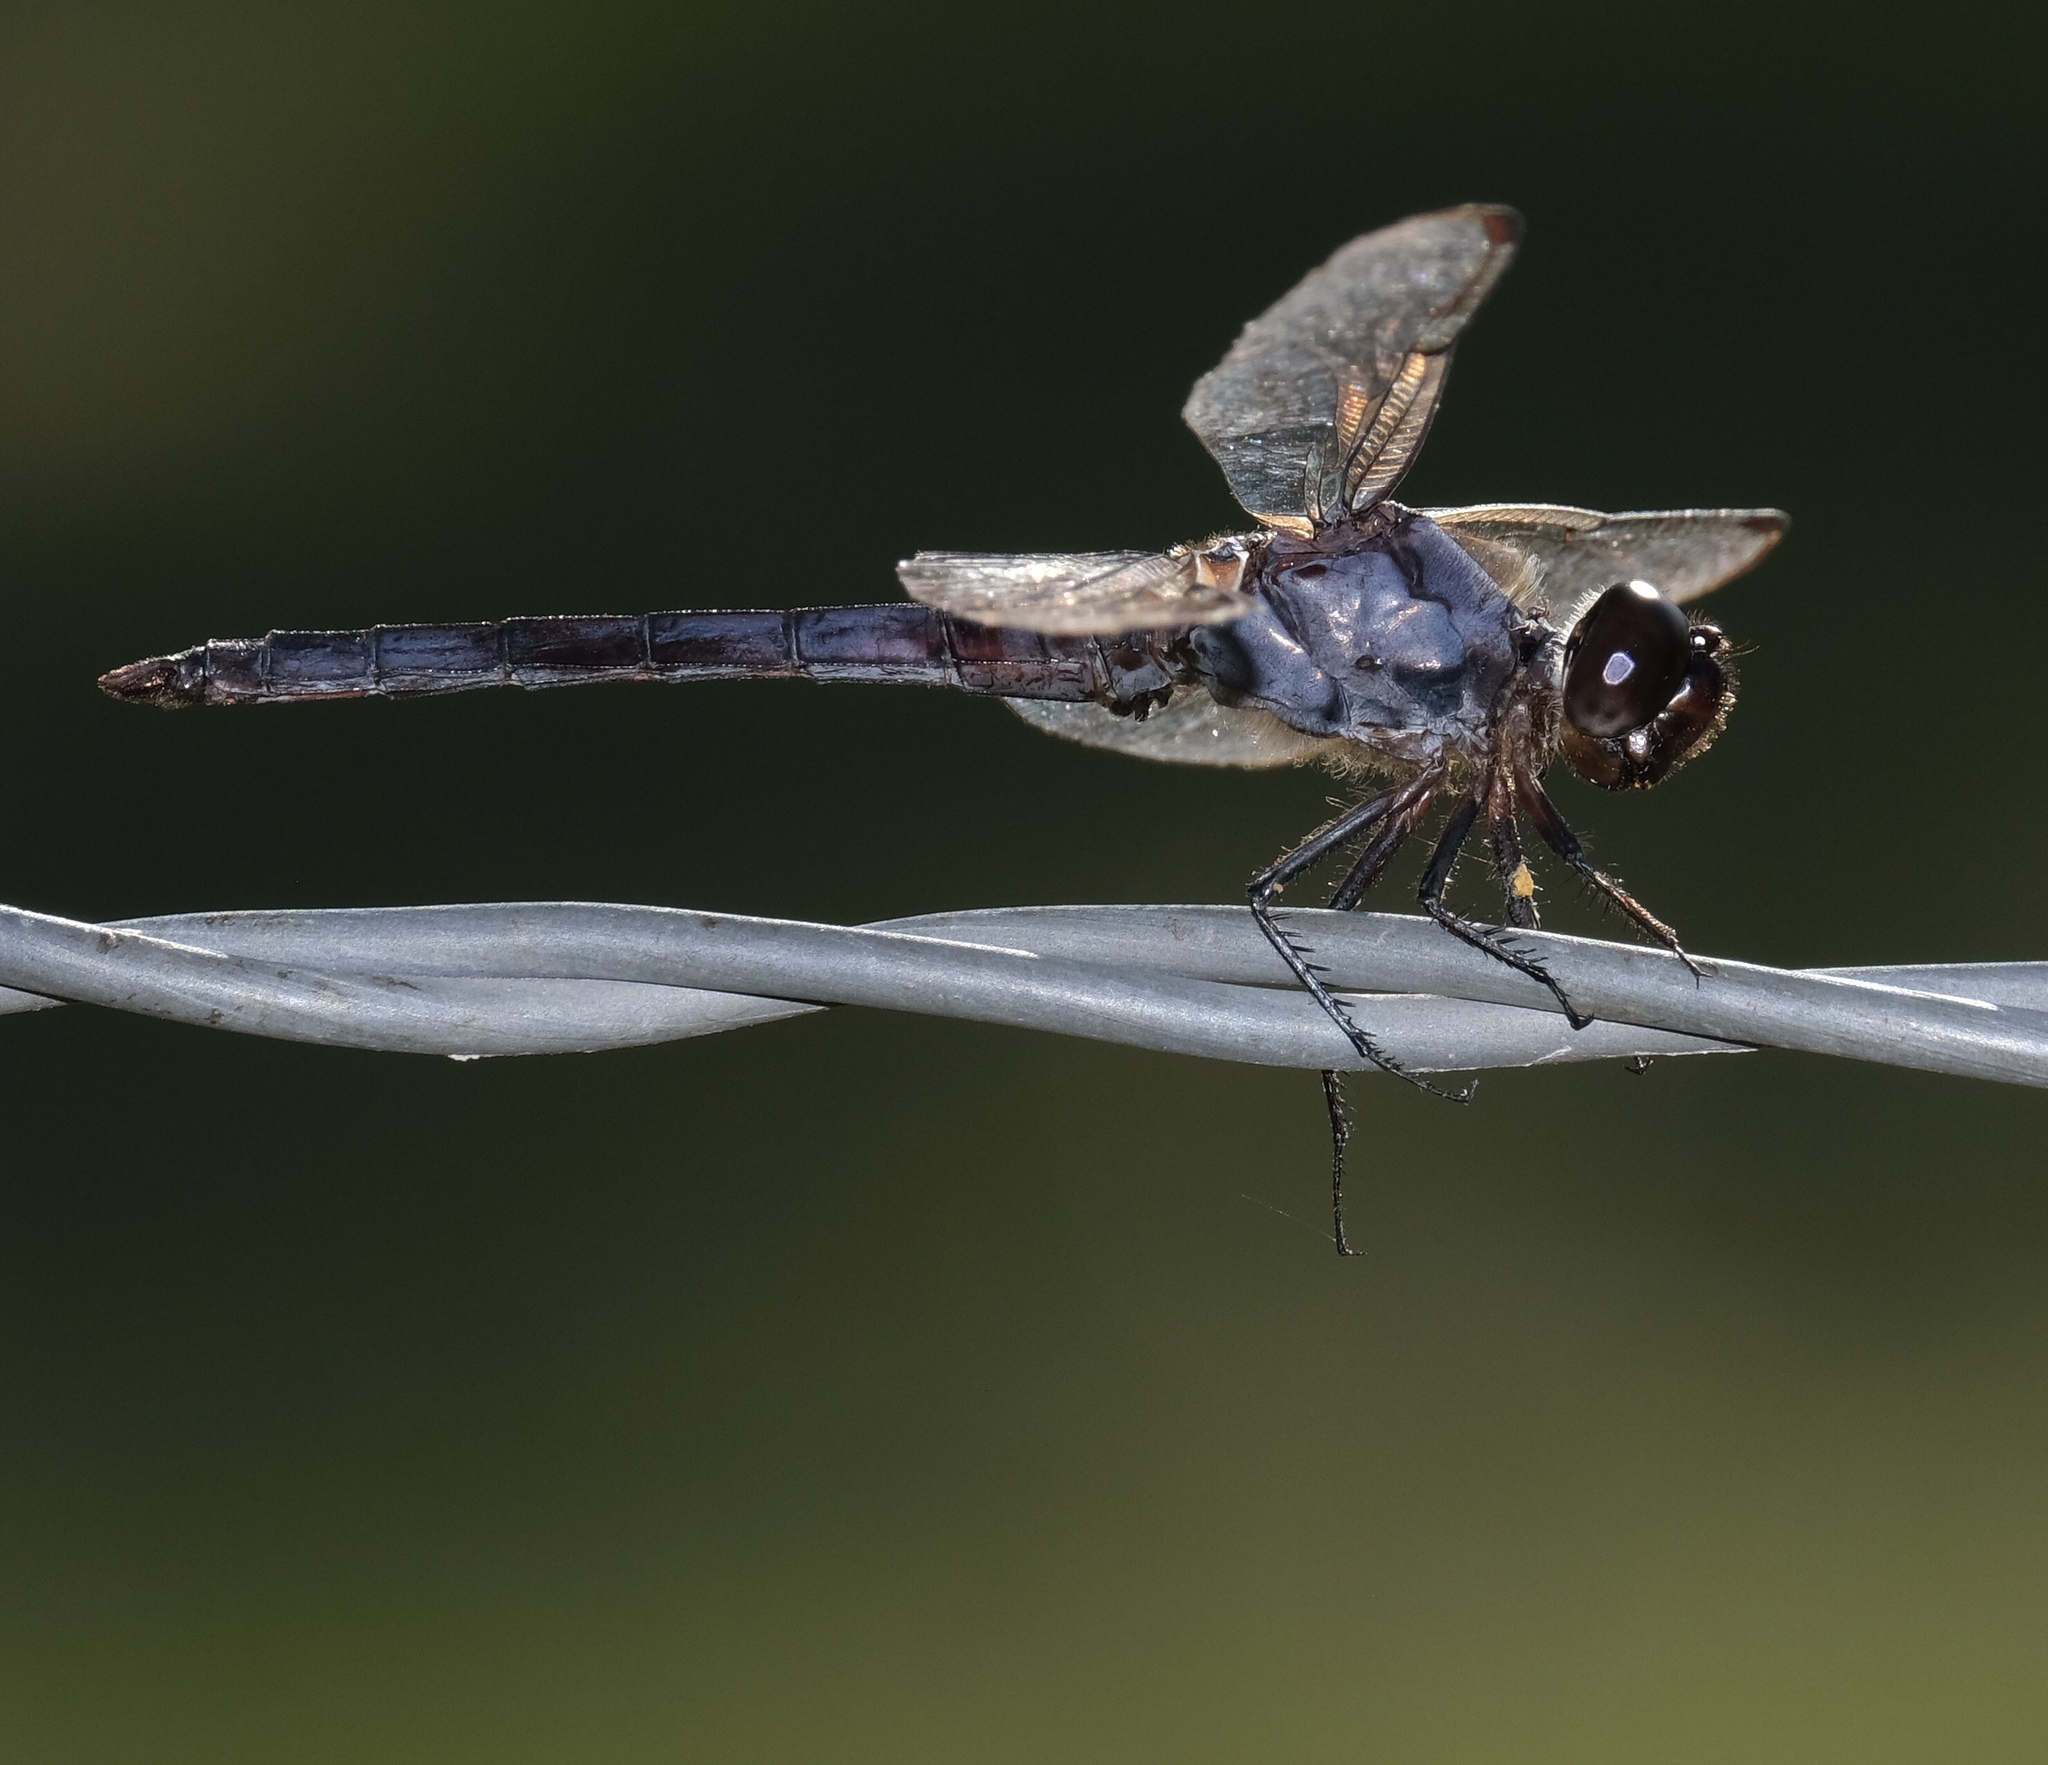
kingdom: Animalia
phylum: Arthropoda
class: Insecta
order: Odonata
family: Libellulidae
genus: Libellula
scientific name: Libellula incesta
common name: Slaty skimmer
